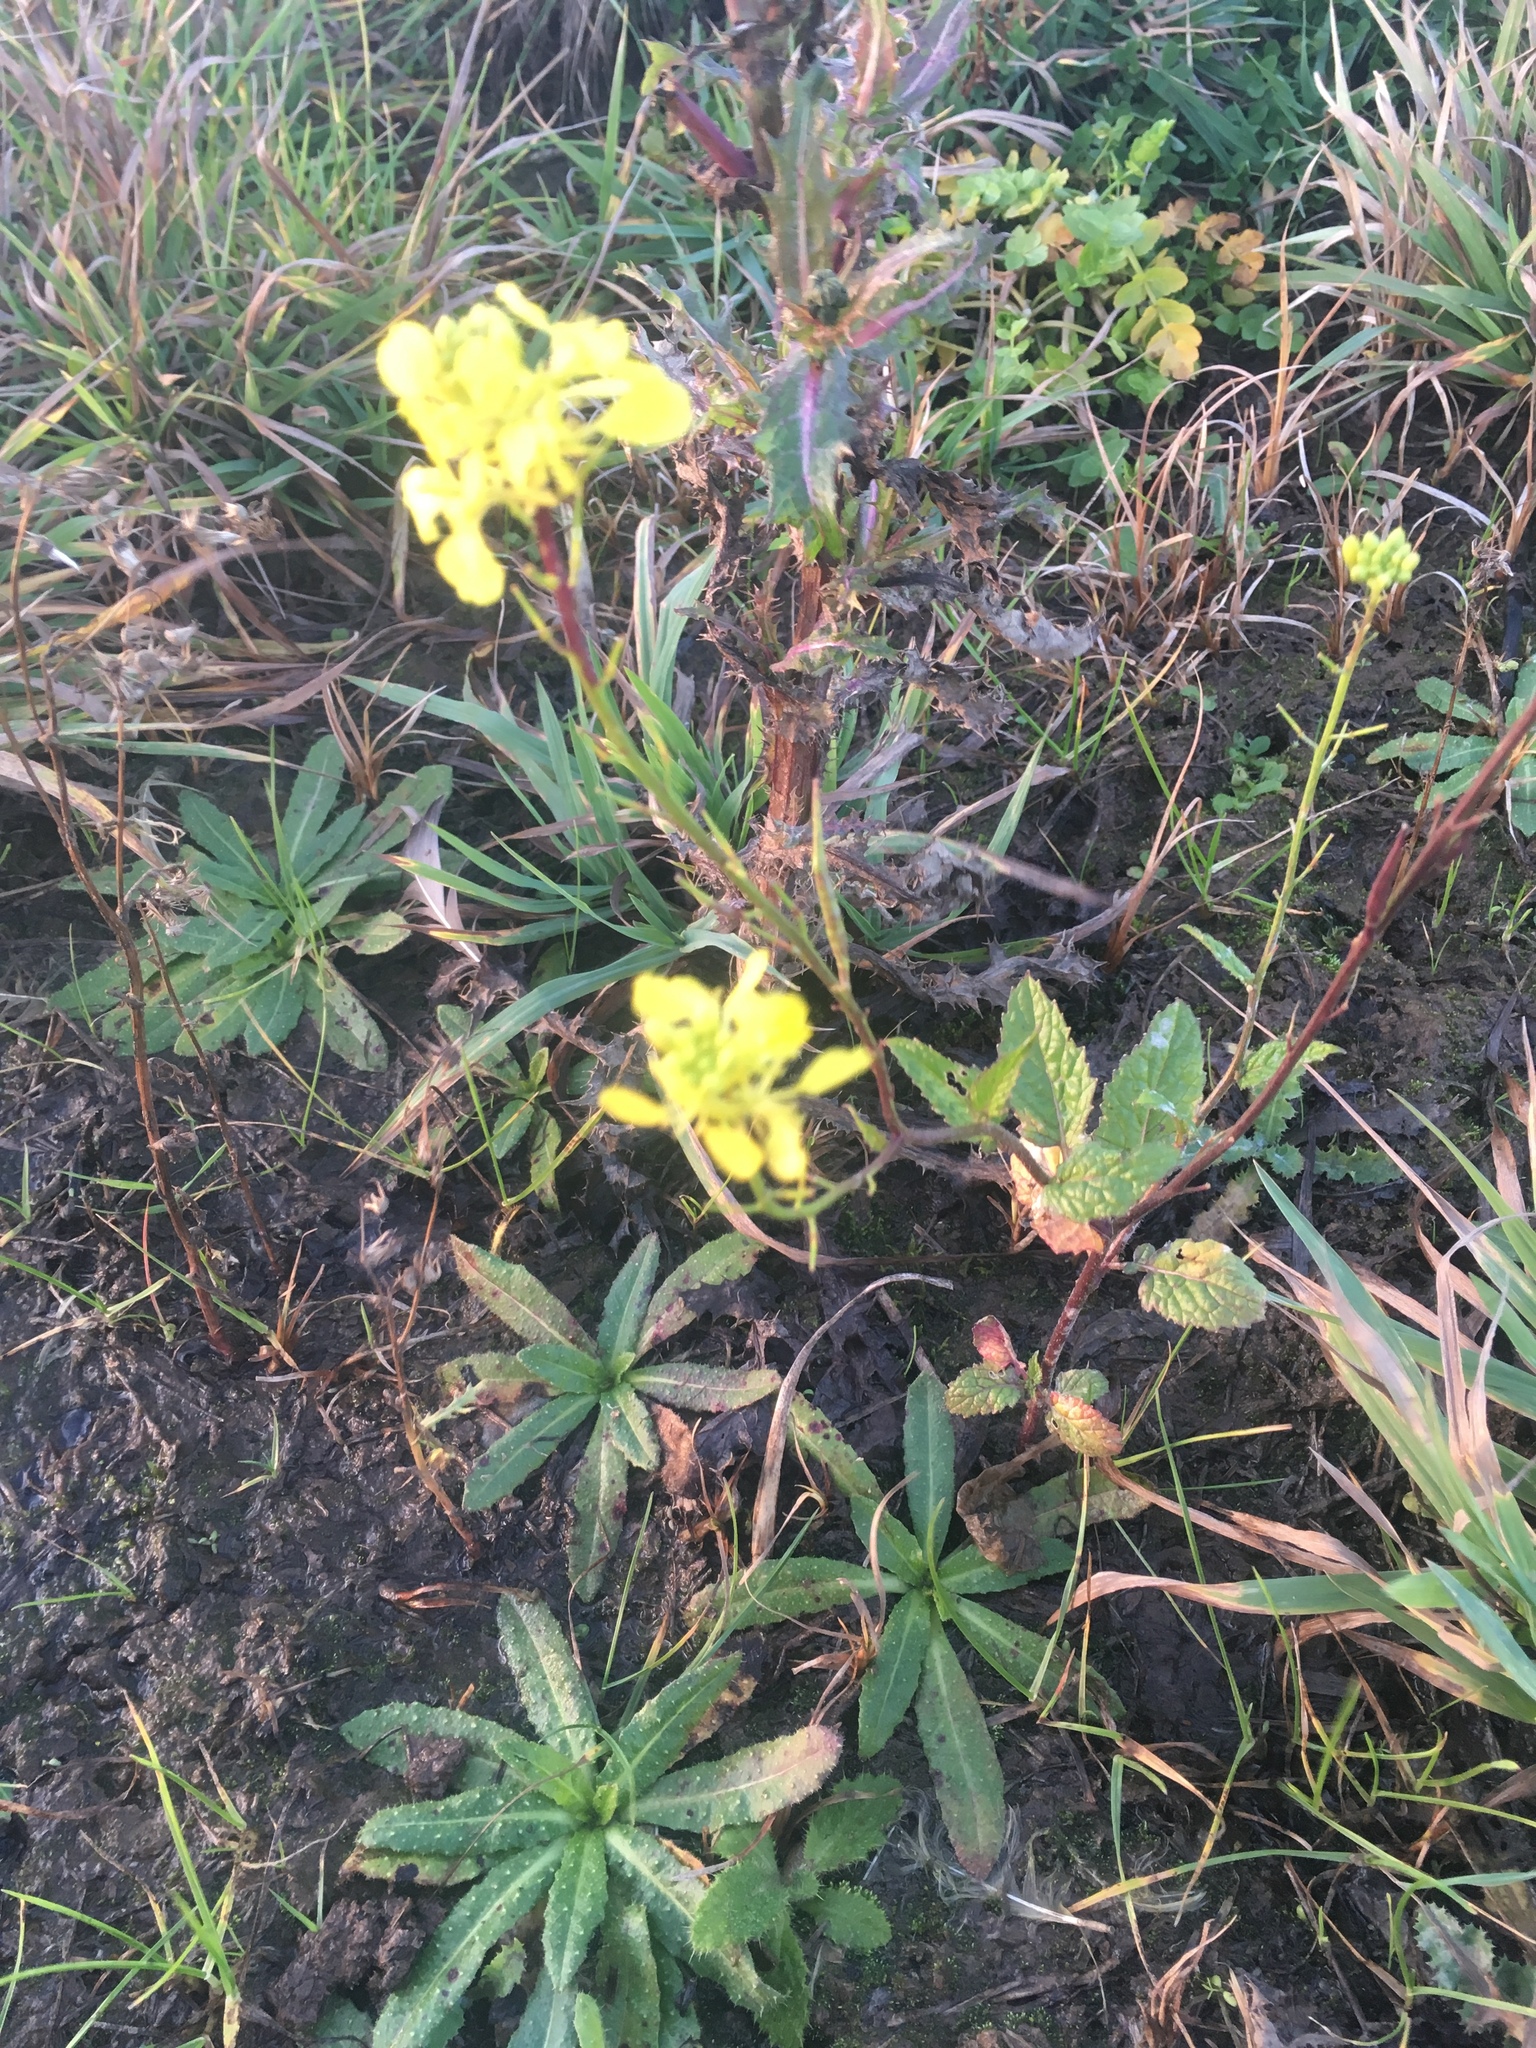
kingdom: Plantae
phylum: Tracheophyta
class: Magnoliopsida
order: Brassicales
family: Brassicaceae
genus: Sinapis
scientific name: Sinapis arvensis
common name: Charlock
